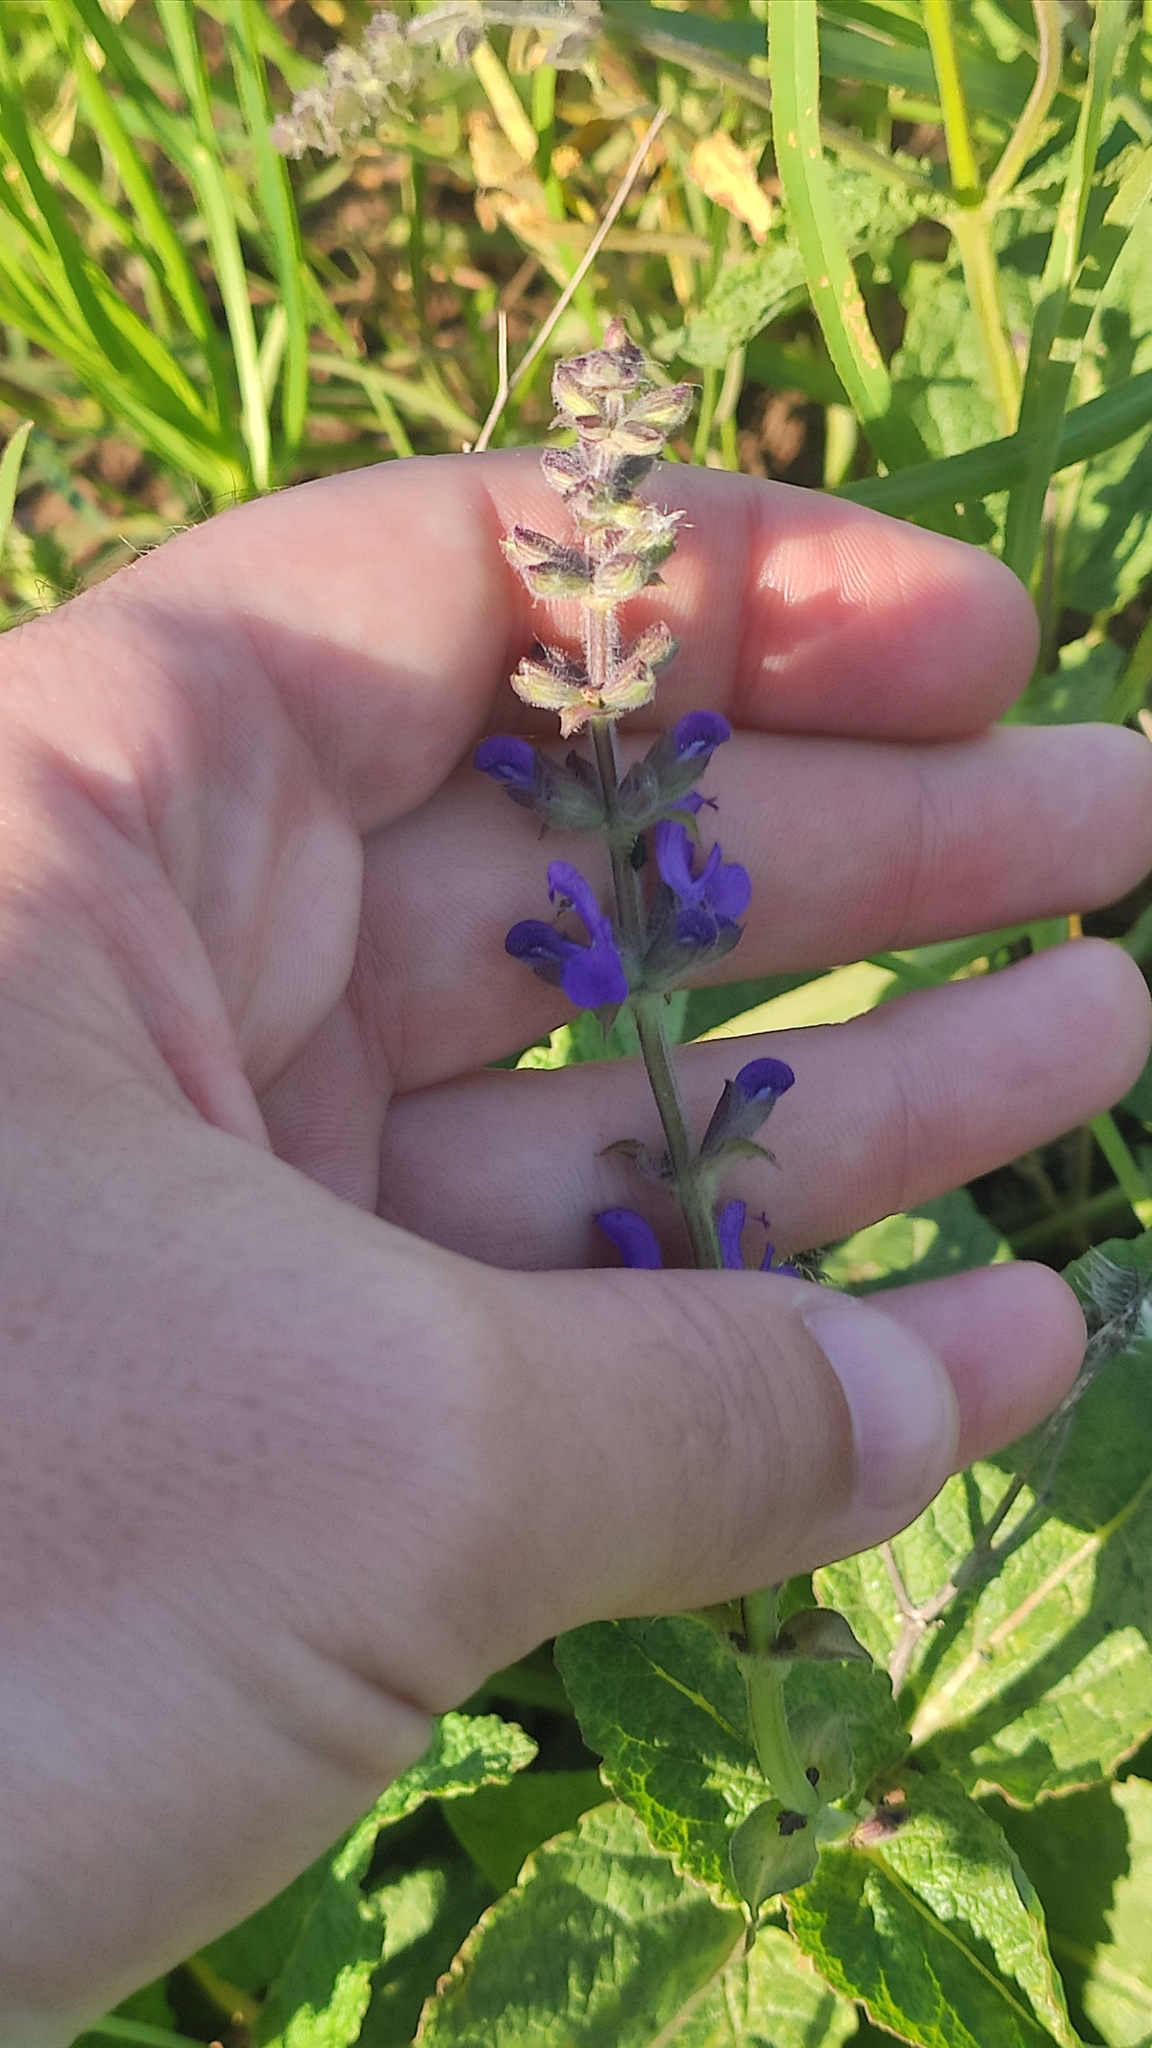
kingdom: Plantae
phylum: Tracheophyta
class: Magnoliopsida
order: Lamiales
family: Lamiaceae
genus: Salvia
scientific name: Salvia dumetorum
